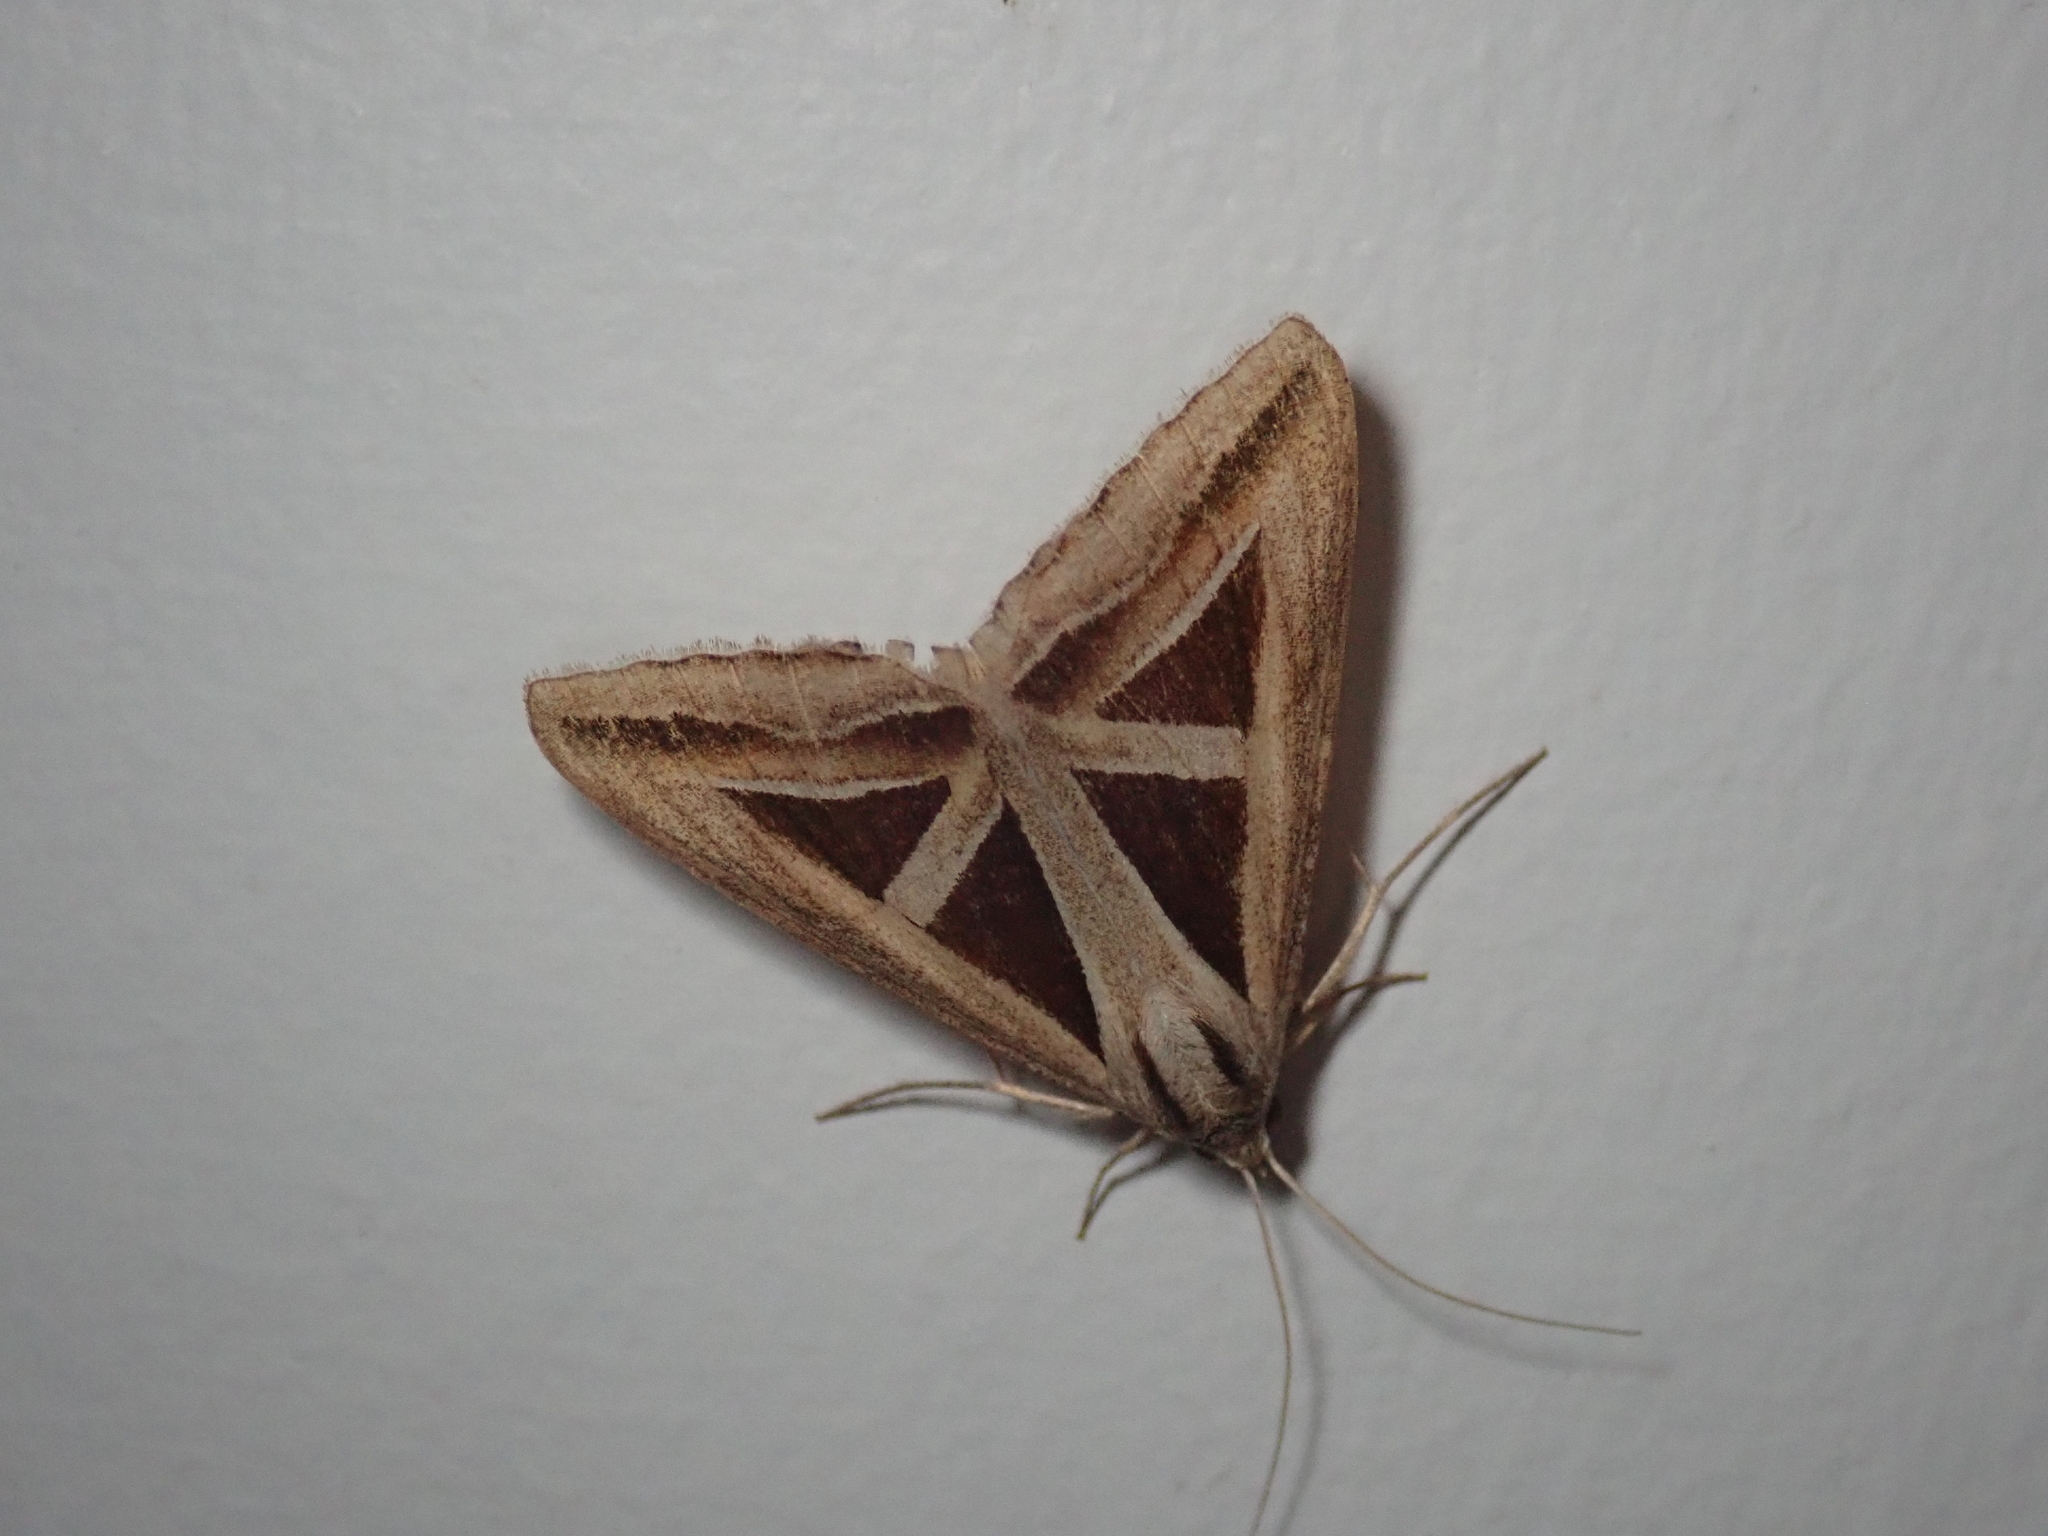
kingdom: Animalia
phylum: Arthropoda
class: Insecta
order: Lepidoptera
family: Erebidae
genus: Trigonodes
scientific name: Trigonodes hyppasia
